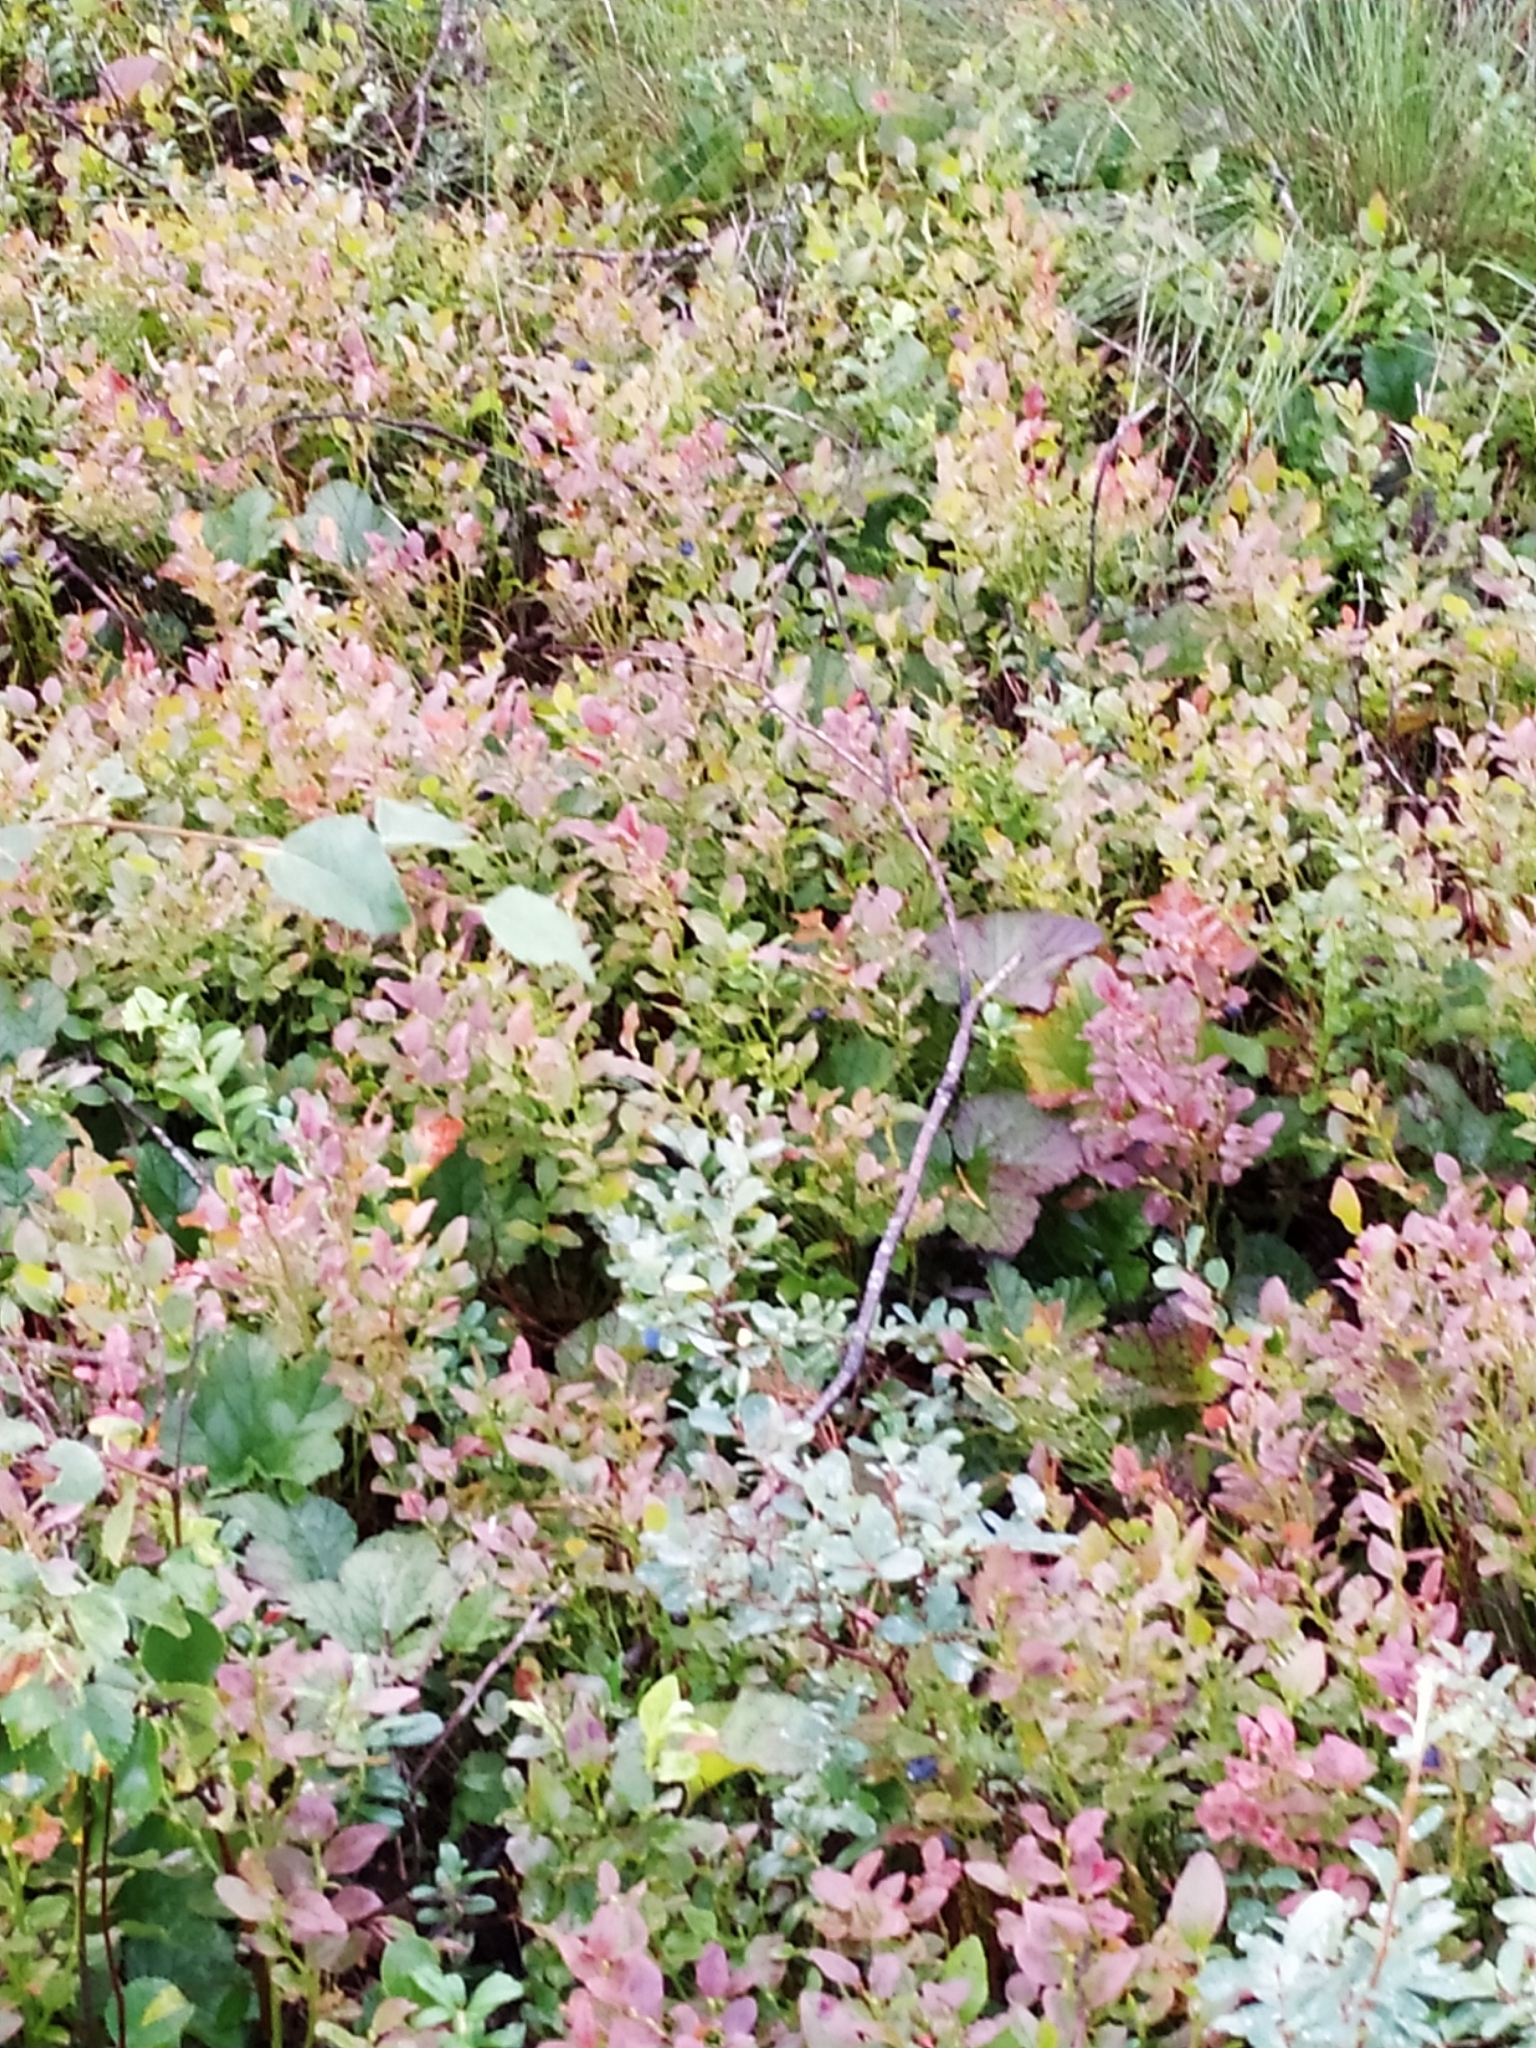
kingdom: Plantae
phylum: Tracheophyta
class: Magnoliopsida
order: Ericales
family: Ericaceae
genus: Vaccinium
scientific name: Vaccinium myrtillus
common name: Bilberry
